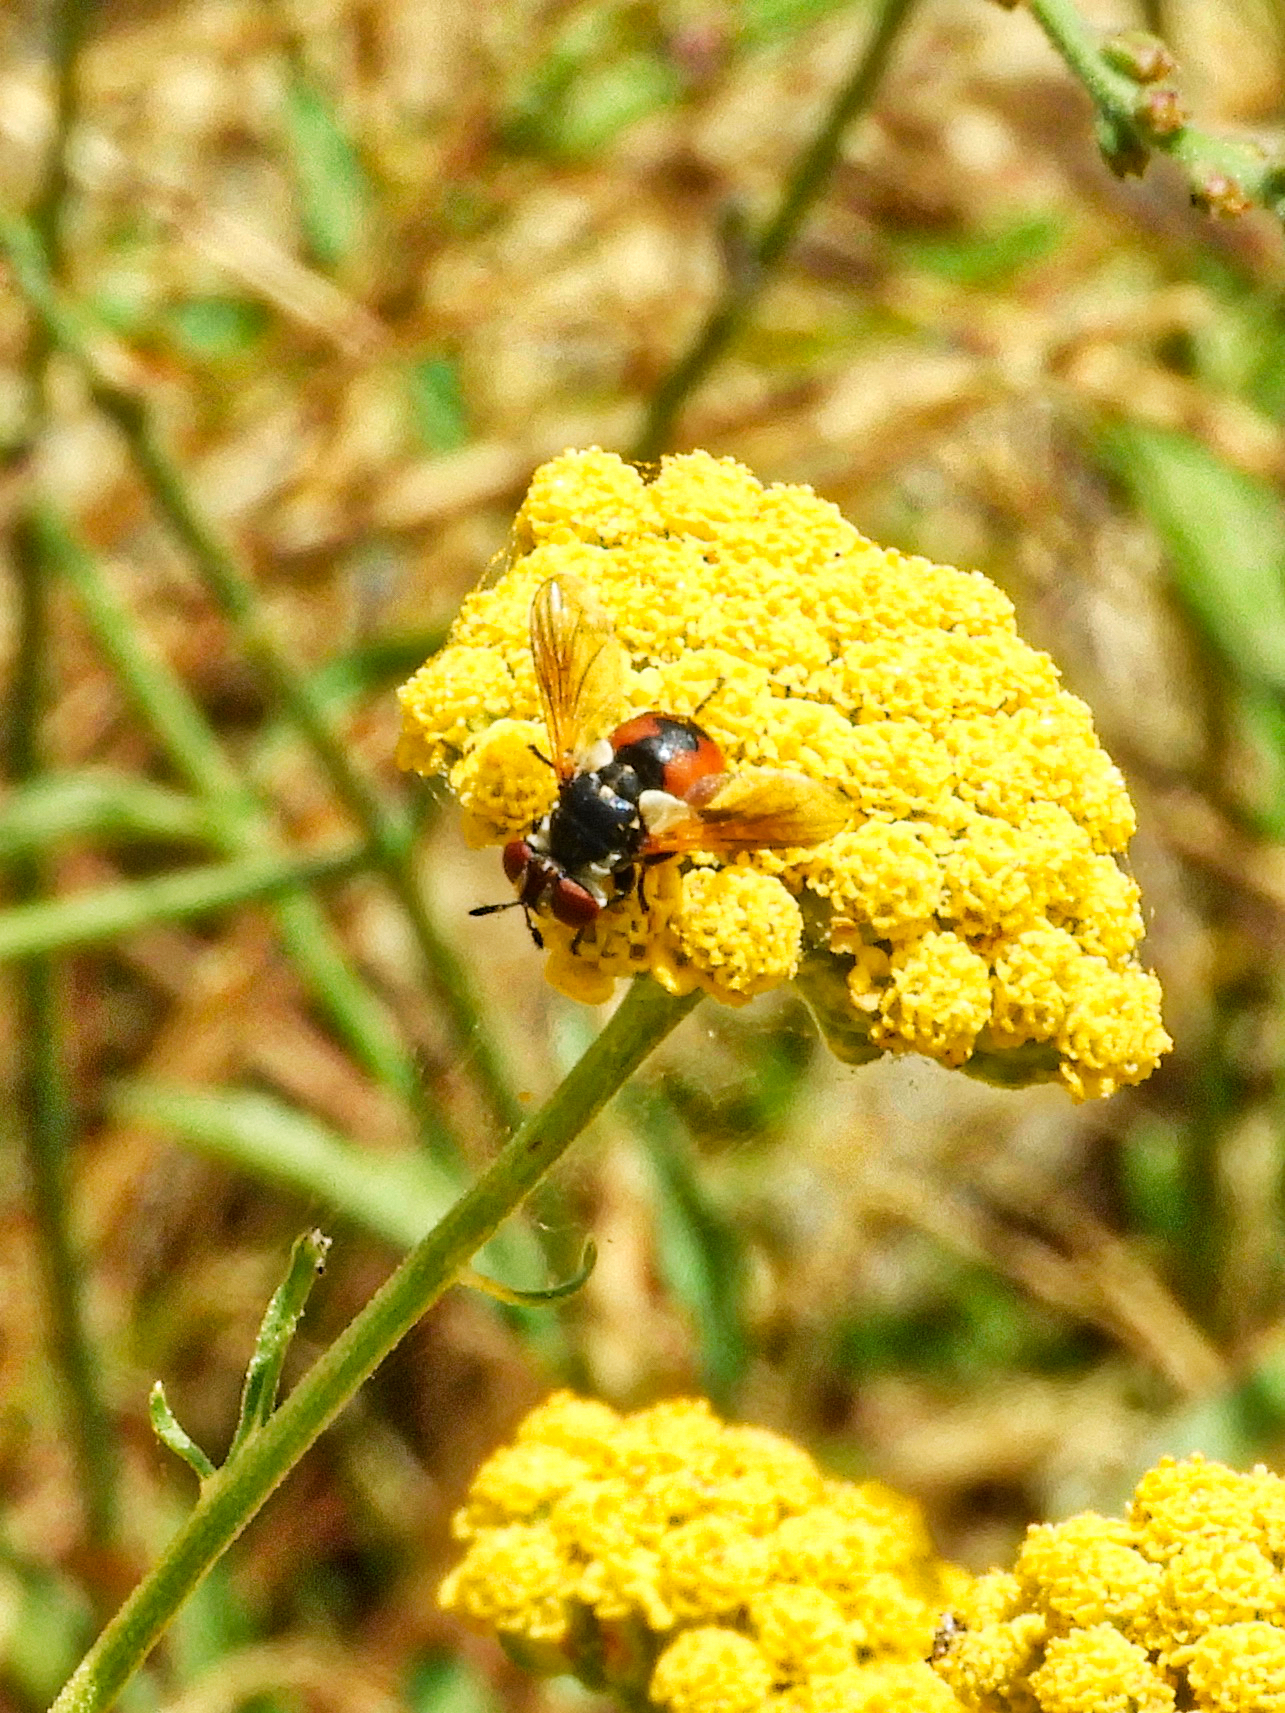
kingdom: Animalia
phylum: Arthropoda
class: Insecta
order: Diptera
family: Tachinidae
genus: Gymnosoma
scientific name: Gymnosoma
